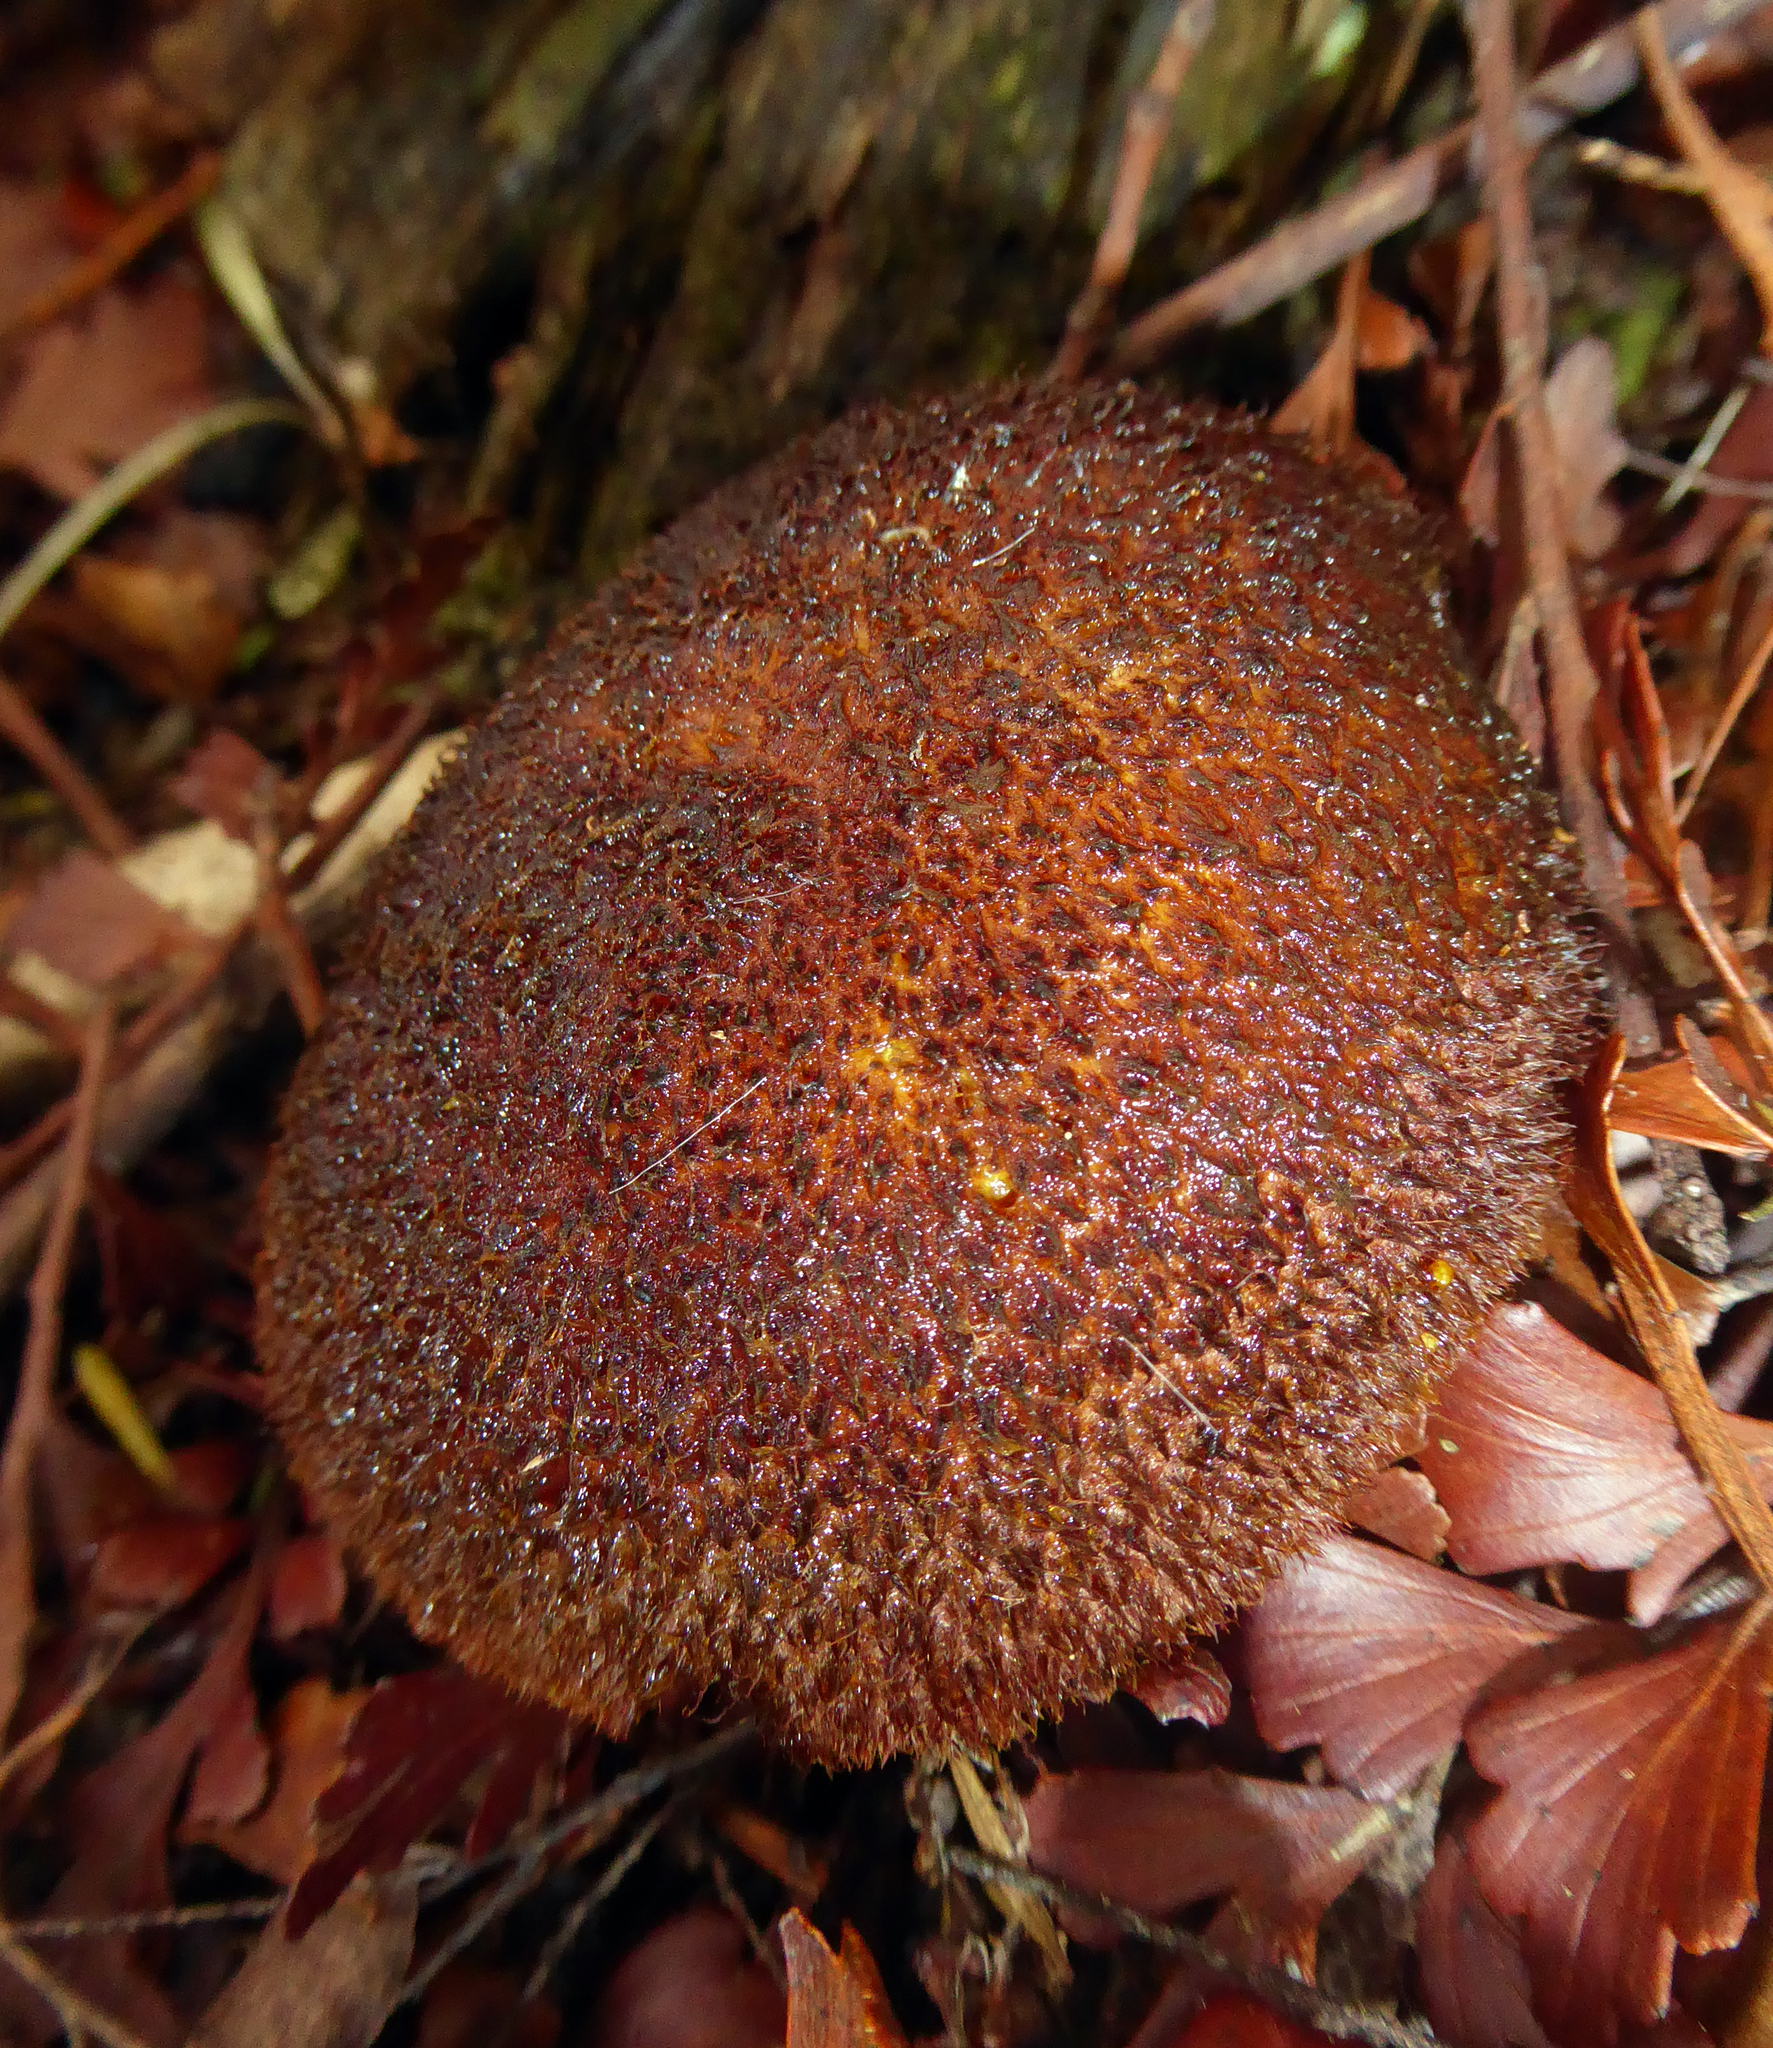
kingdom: Fungi
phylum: Basidiomycota
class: Agaricomycetes
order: Agaricales
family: Tricholomataceae
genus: Tricholomopsis
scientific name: Tricholomopsis scabra
